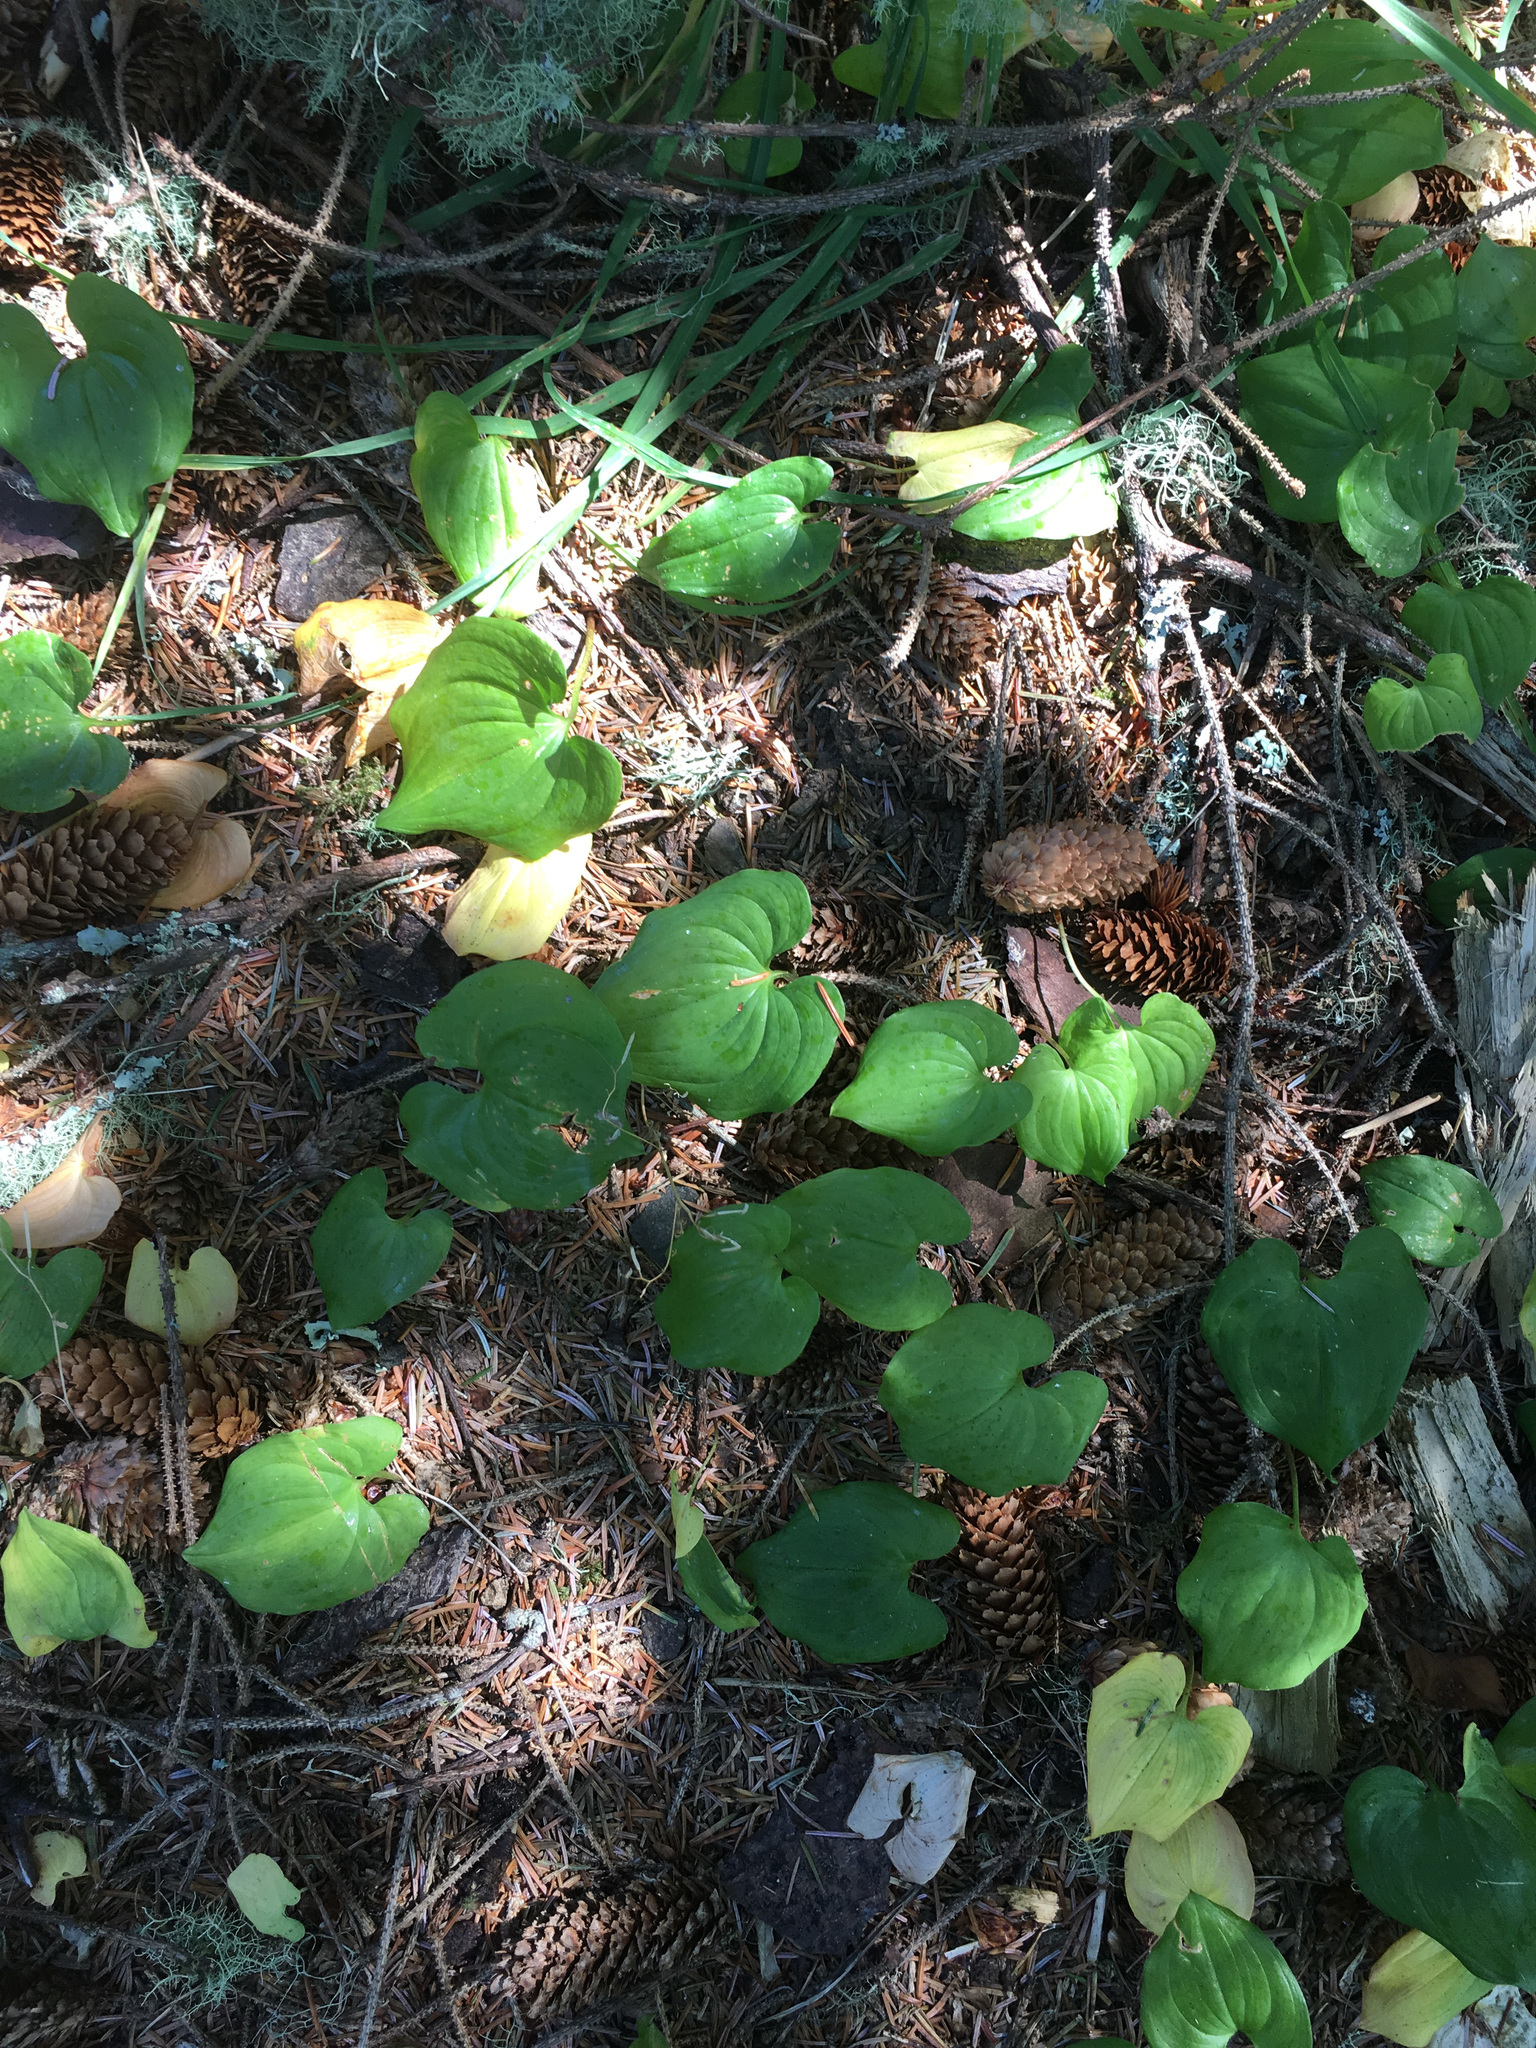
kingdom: Plantae
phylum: Tracheophyta
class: Liliopsida
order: Asparagales
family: Asparagaceae
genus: Maianthemum
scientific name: Maianthemum dilatatum
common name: False lily-of-the-valley
